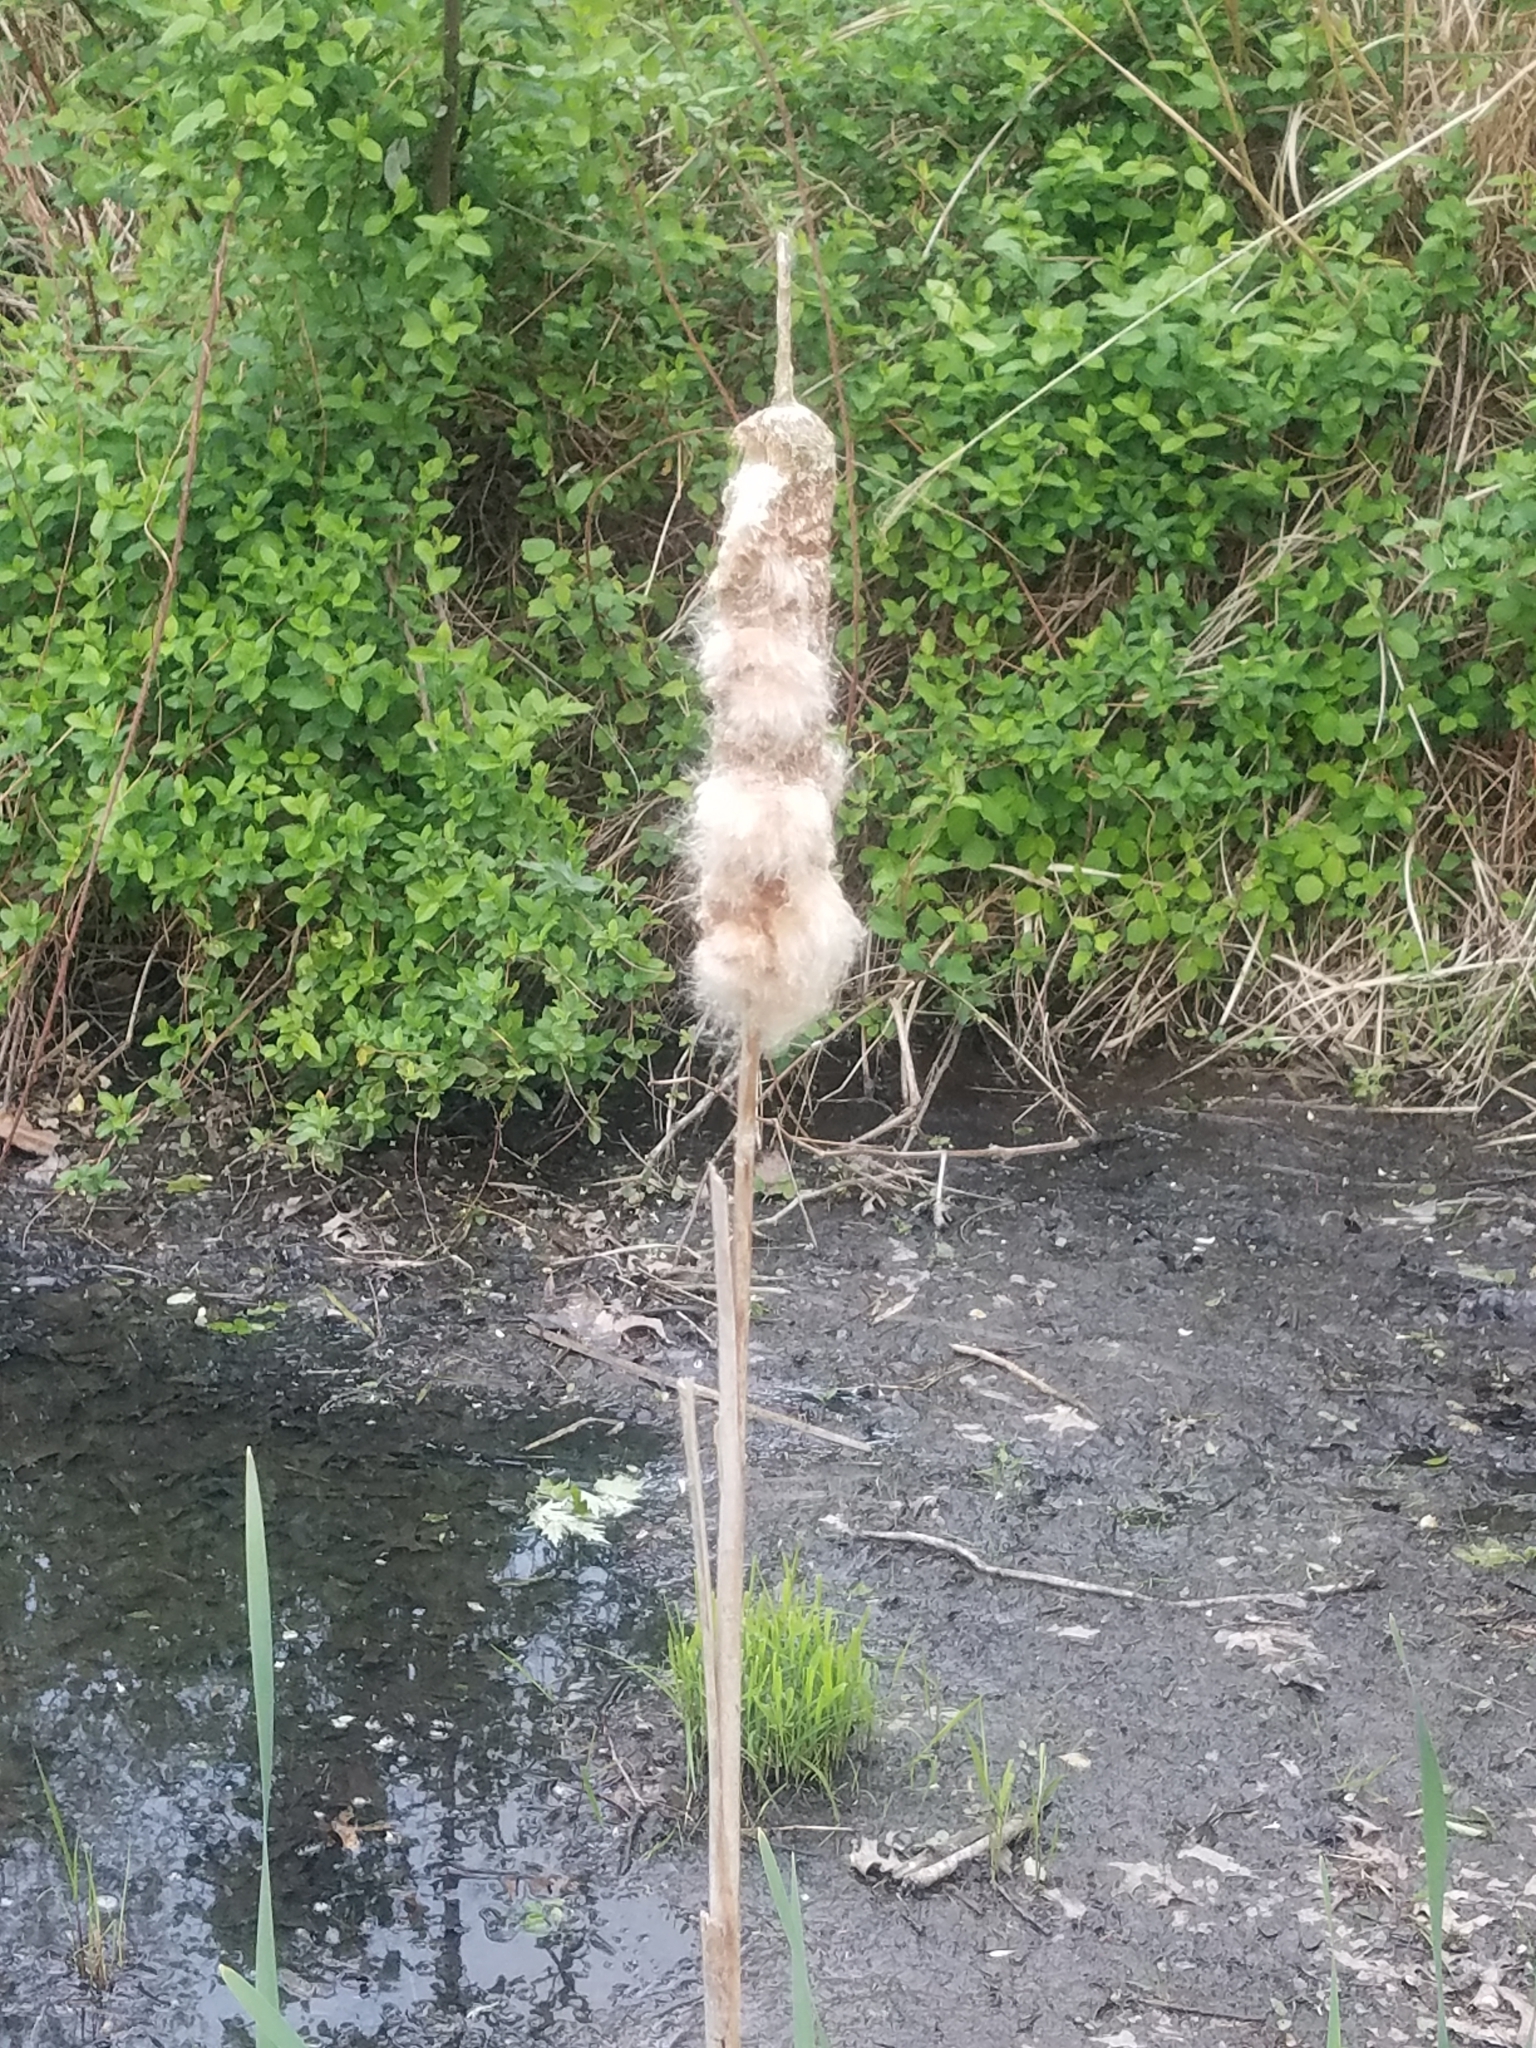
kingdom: Plantae
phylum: Tracheophyta
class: Liliopsida
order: Poales
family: Typhaceae
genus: Typha
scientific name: Typha latifolia
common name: Broadleaf cattail
